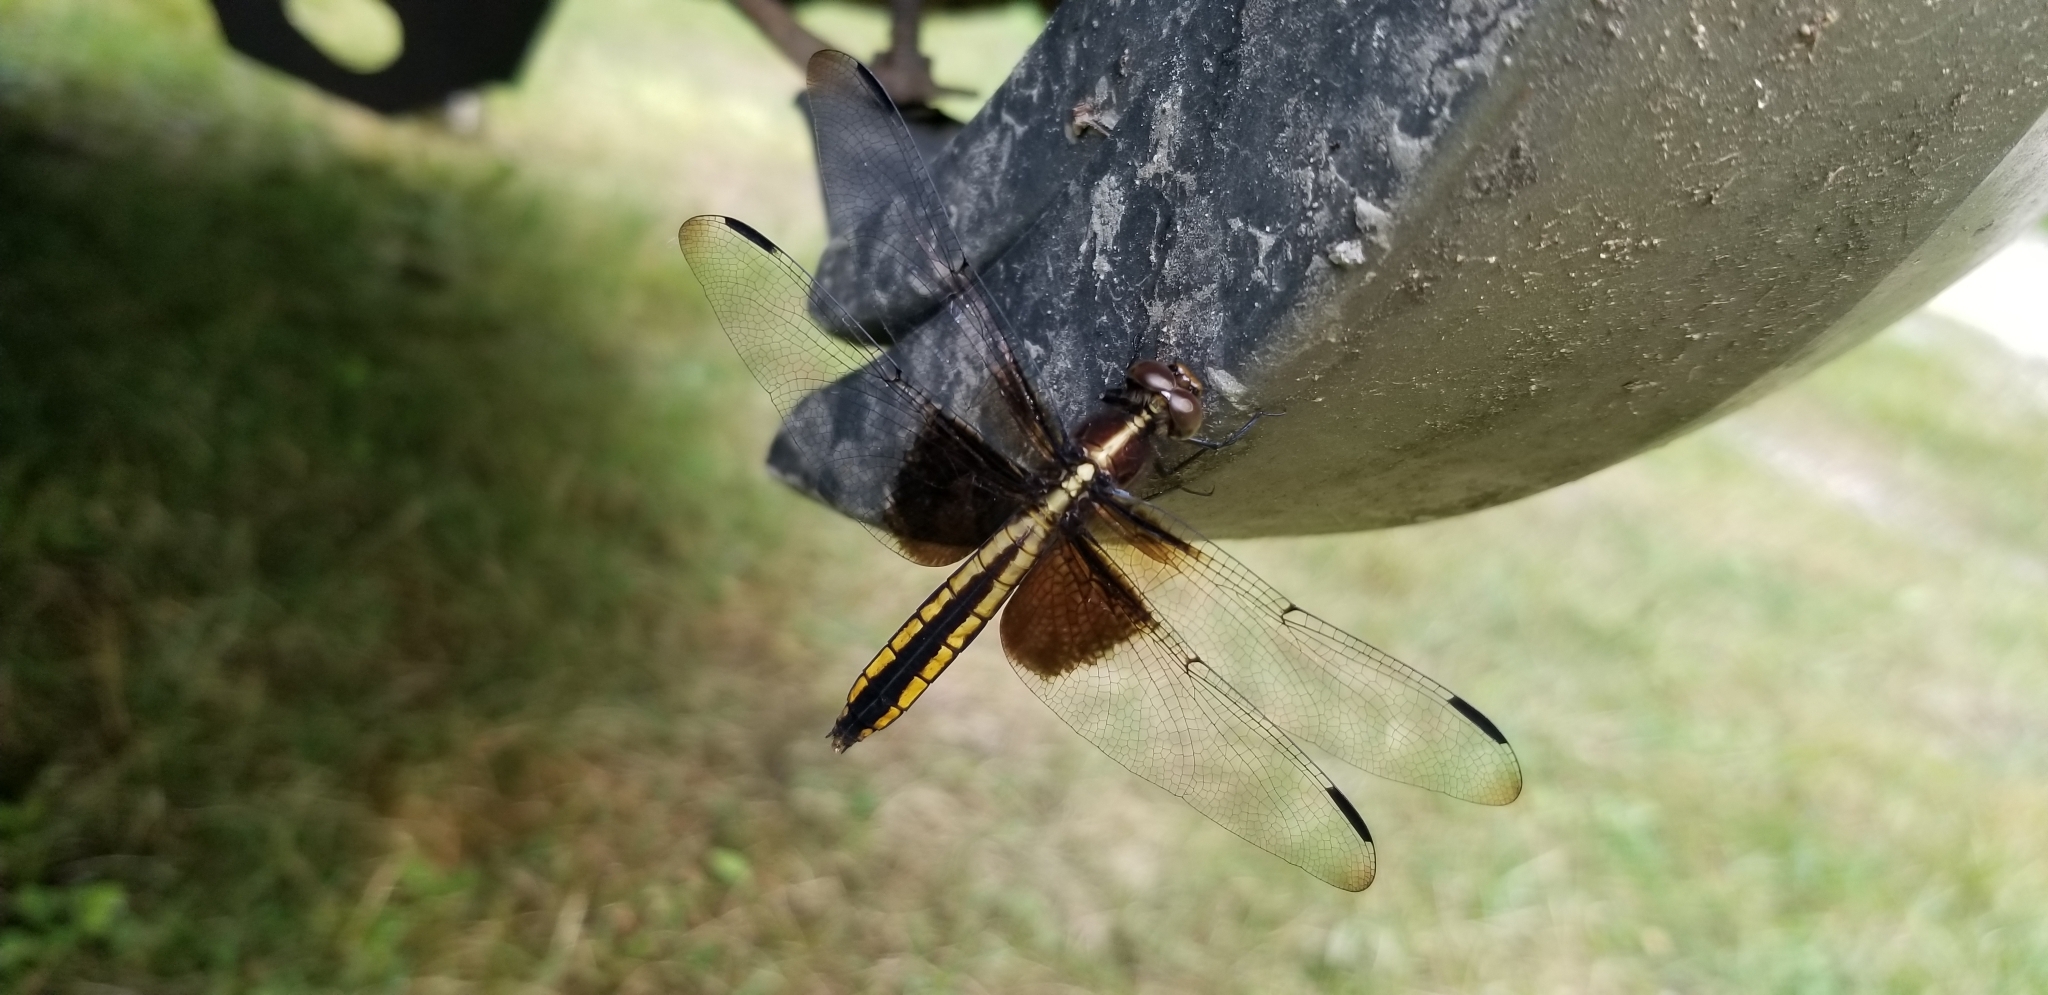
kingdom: Animalia
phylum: Arthropoda
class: Insecta
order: Odonata
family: Libellulidae
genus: Libellula
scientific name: Libellula luctuosa
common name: Widow skimmer
